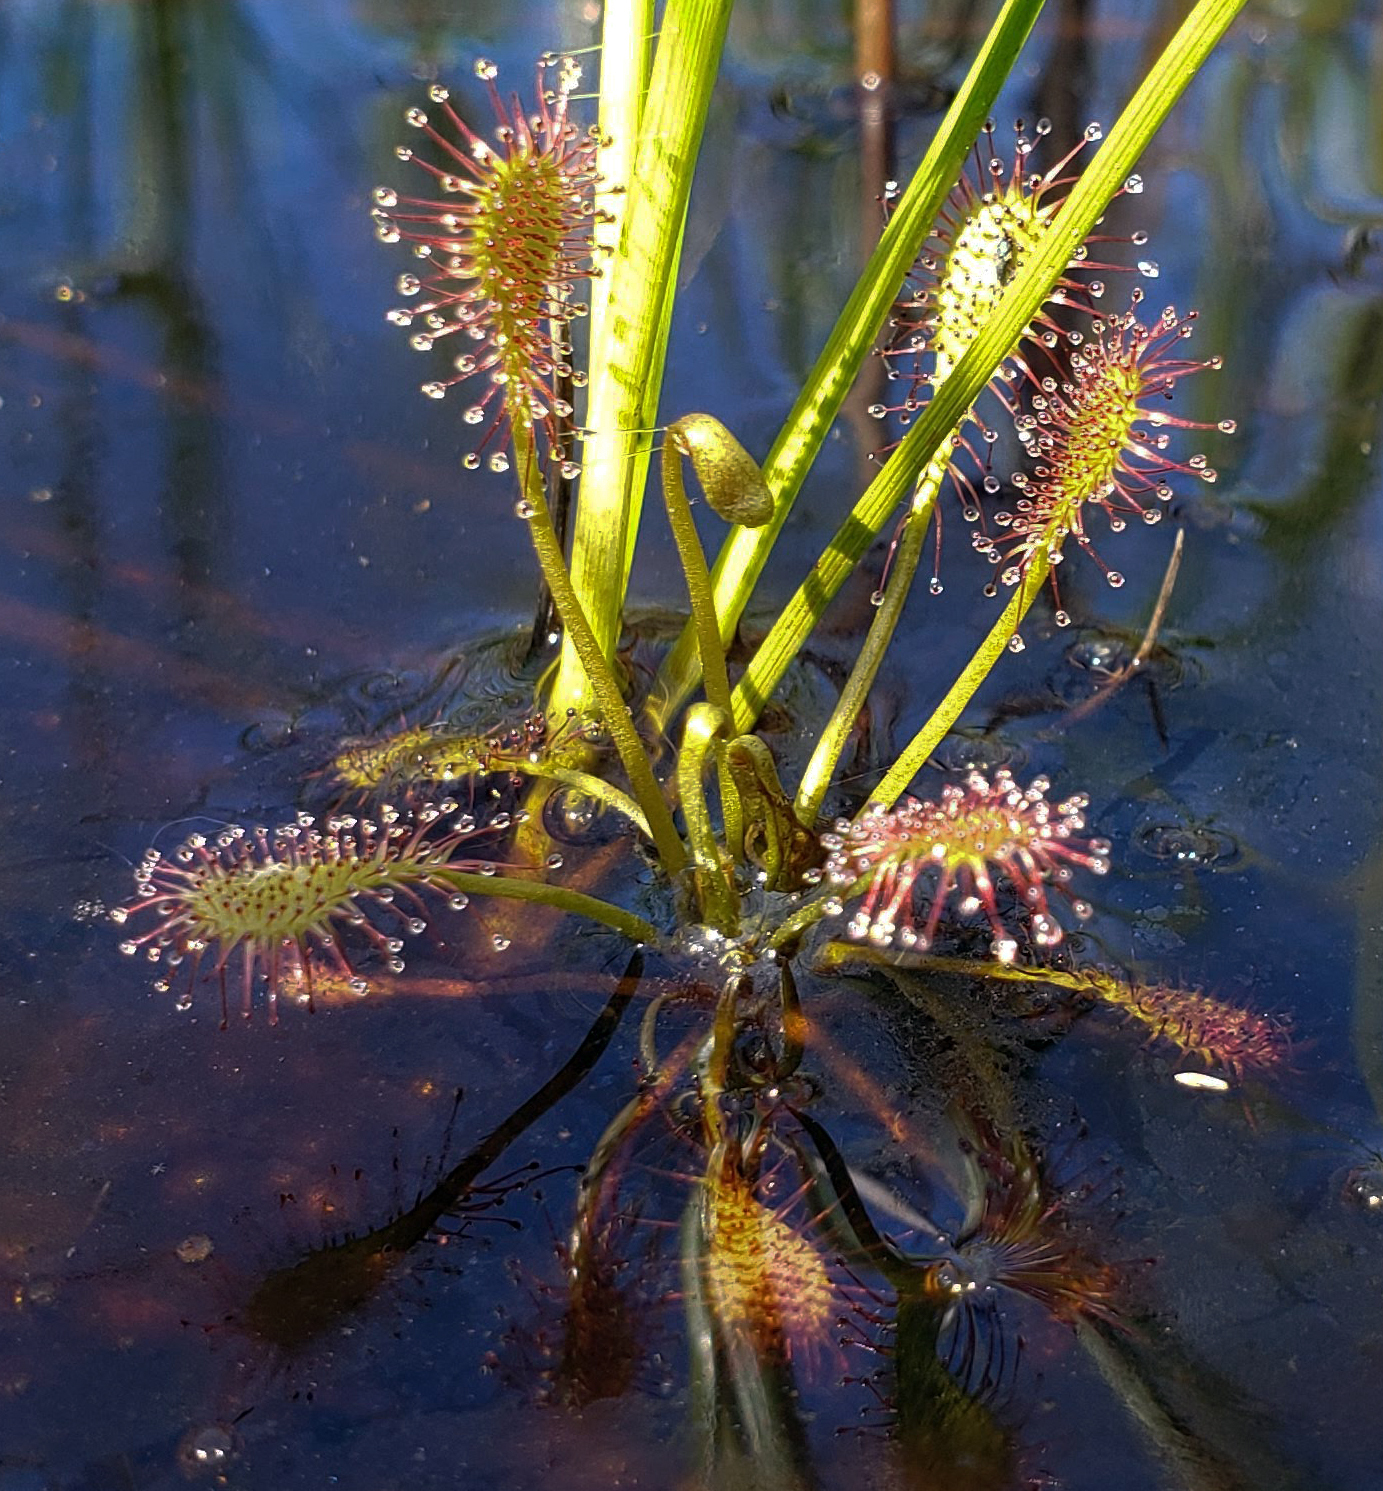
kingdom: Plantae
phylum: Tracheophyta
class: Magnoliopsida
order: Caryophyllales
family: Droseraceae
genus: Drosera
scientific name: Drosera intermedia
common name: Oblong-leaved sundew
